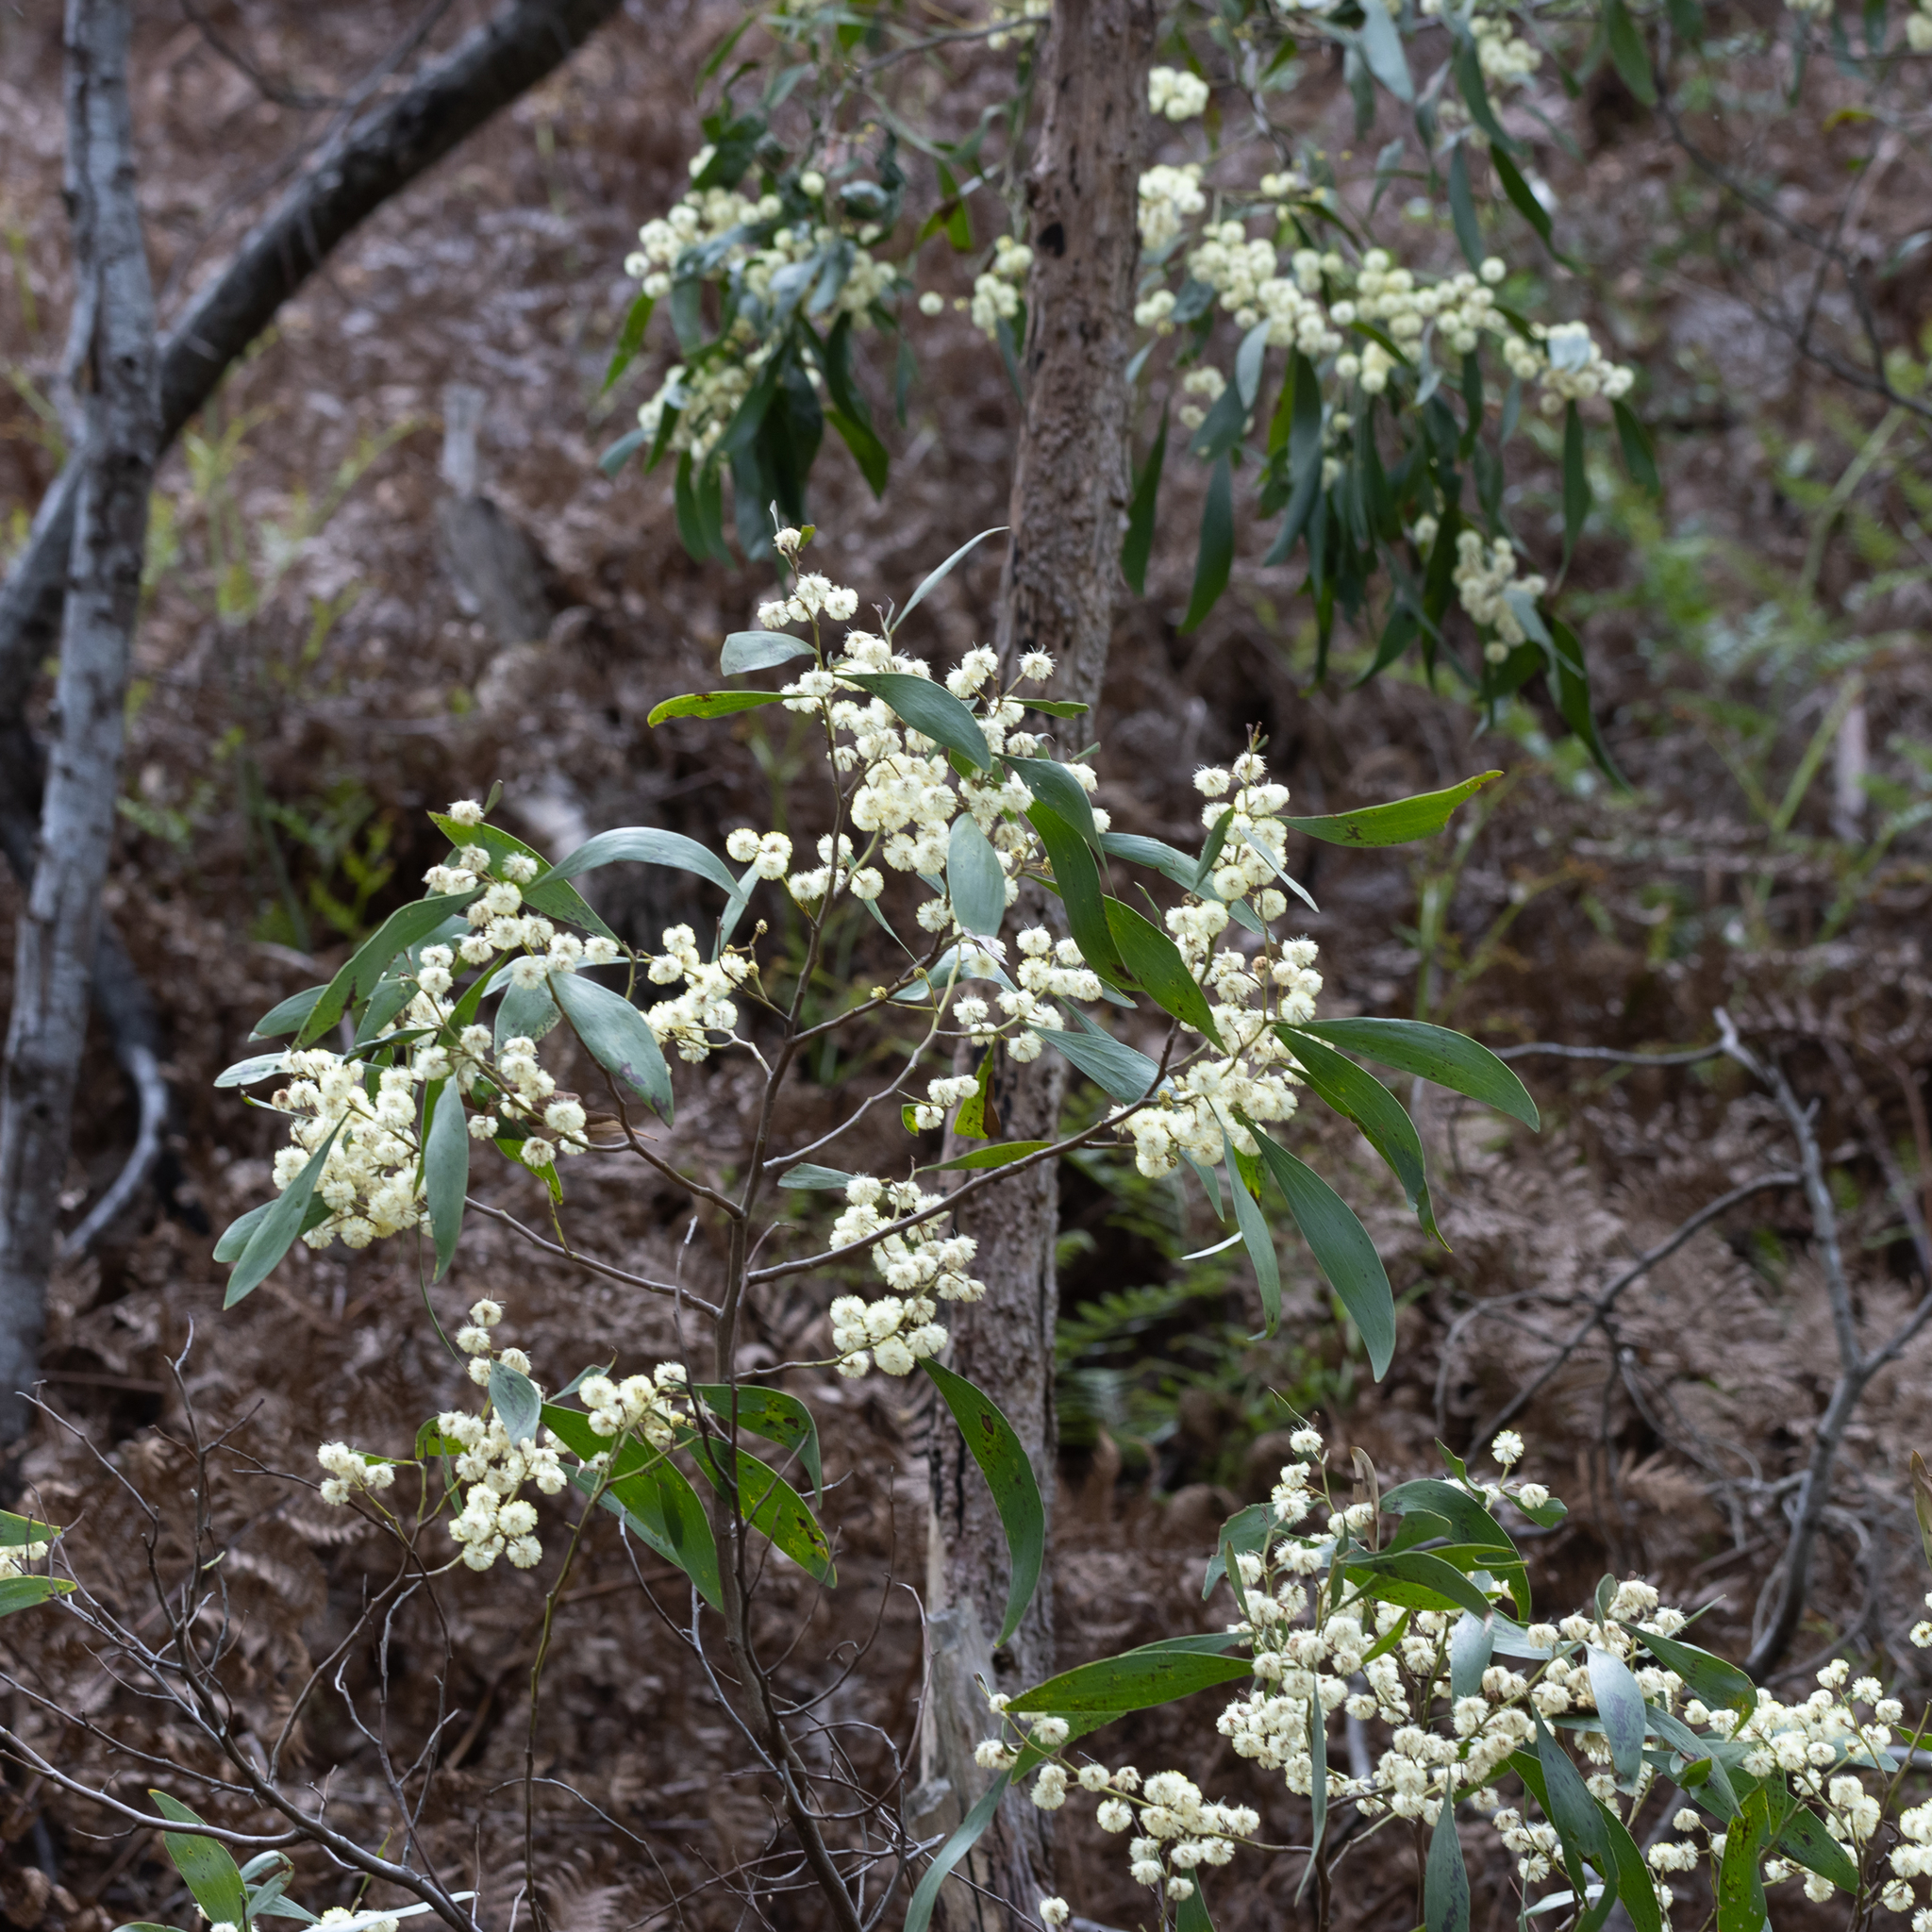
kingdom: Plantae
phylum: Tracheophyta
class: Magnoliopsida
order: Fabales
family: Fabaceae
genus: Acacia
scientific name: Acacia melanoxylon
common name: Blackwood
